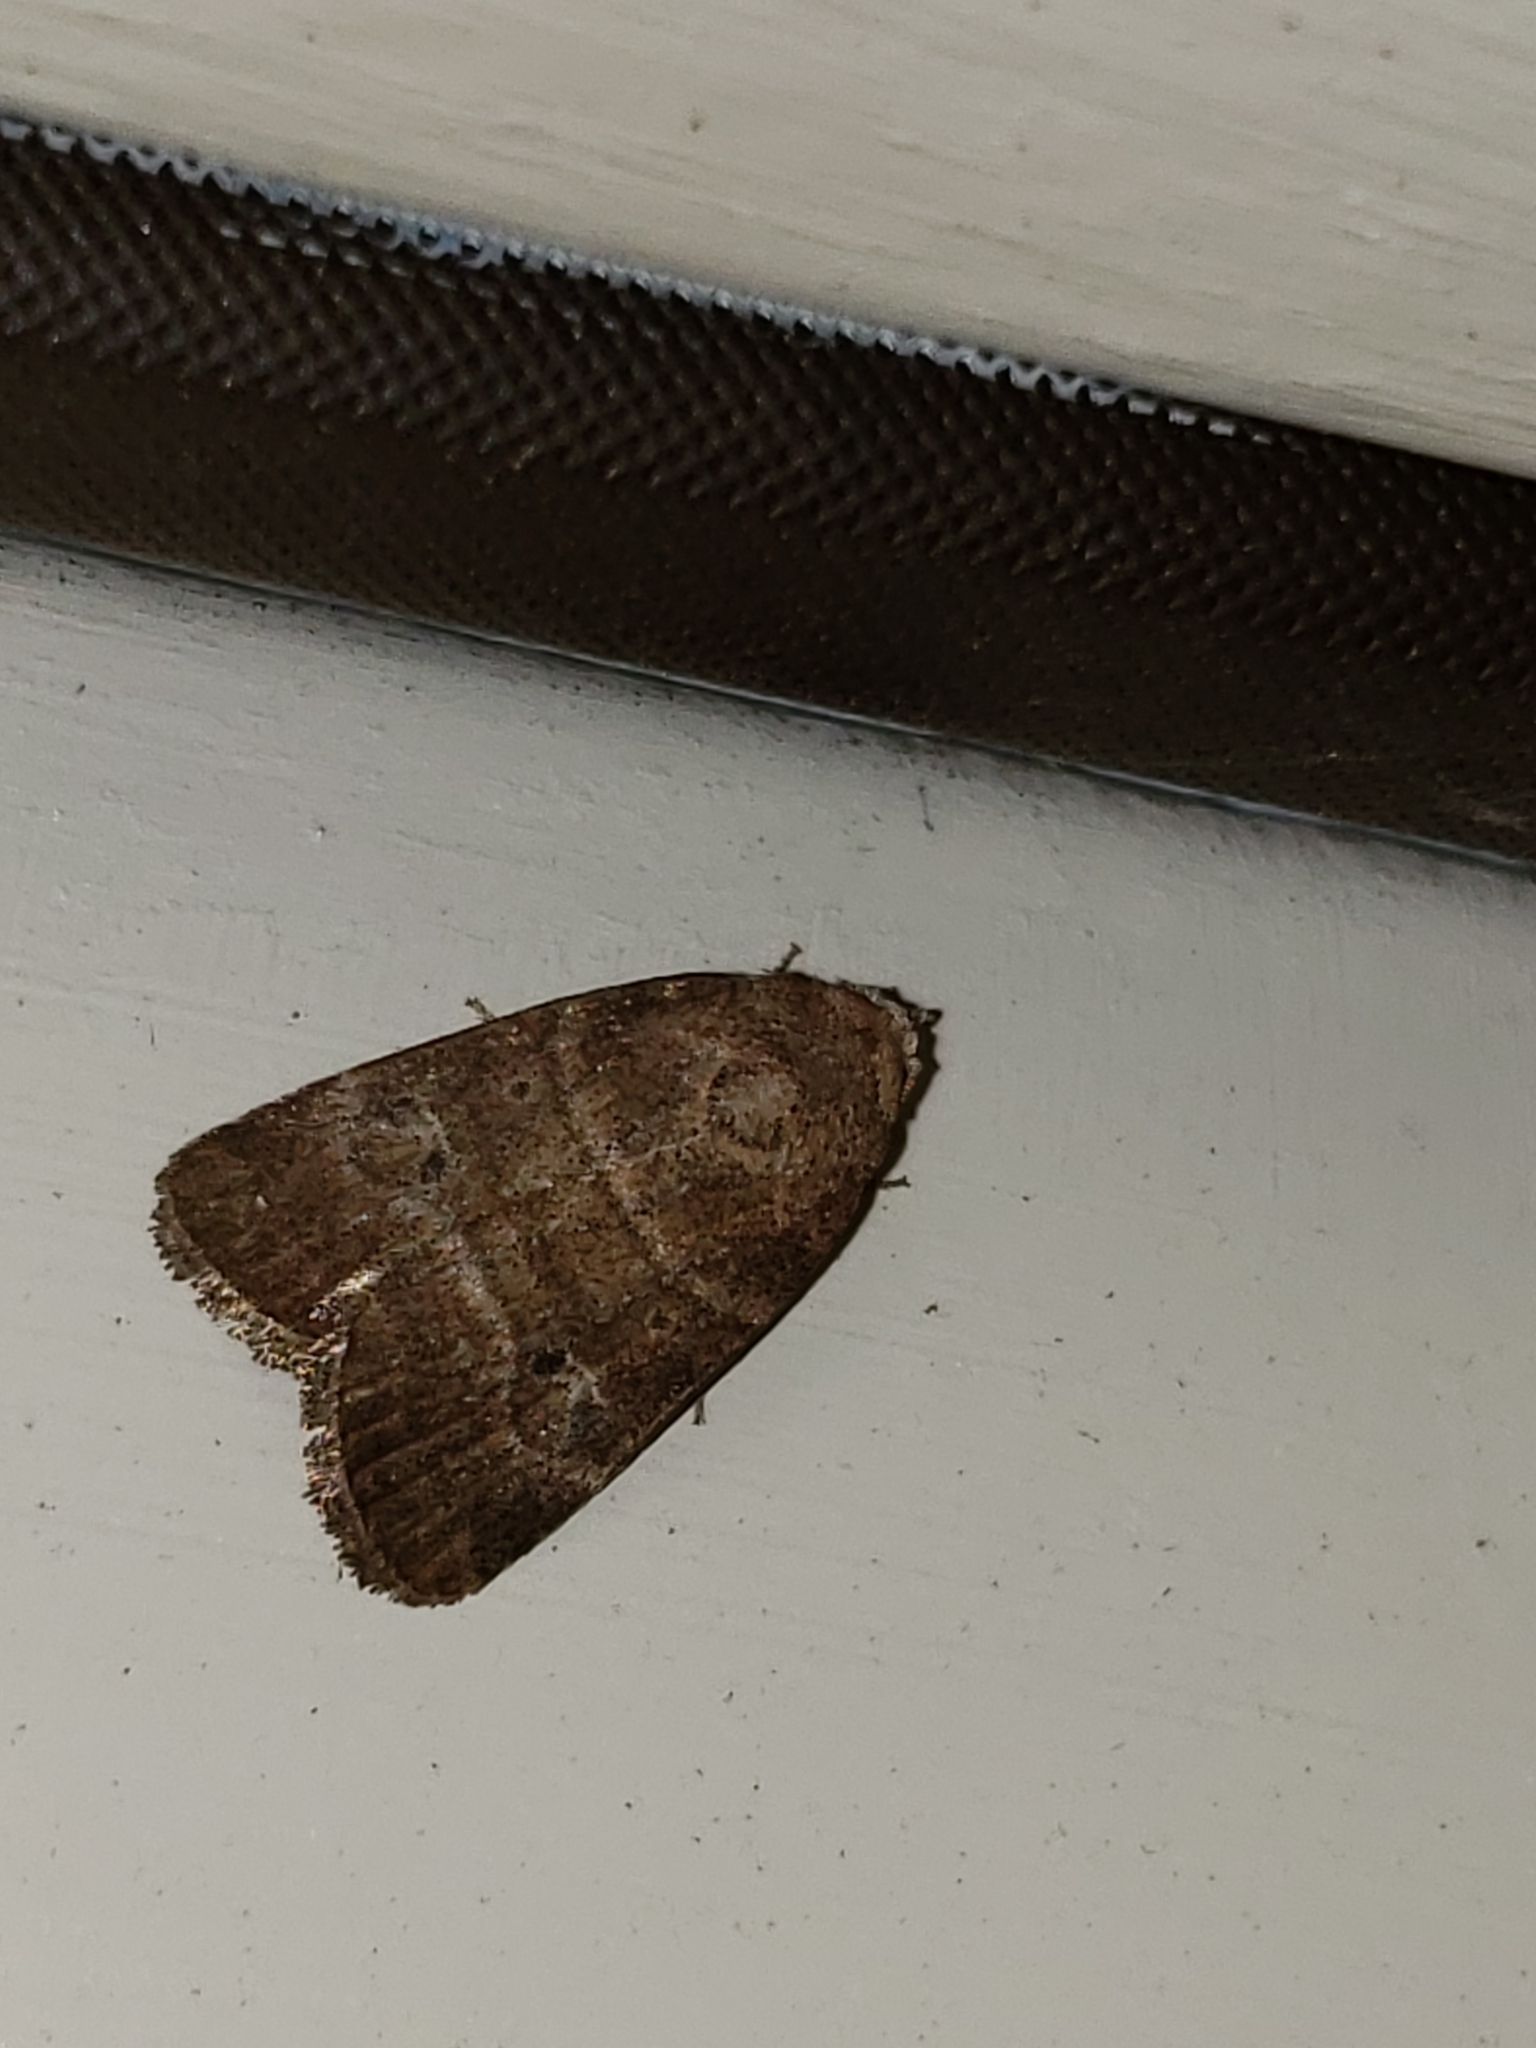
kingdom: Animalia
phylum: Arthropoda
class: Insecta
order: Lepidoptera
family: Noctuidae
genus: Elaphria
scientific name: Elaphria grata
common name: Grateful midget moth
